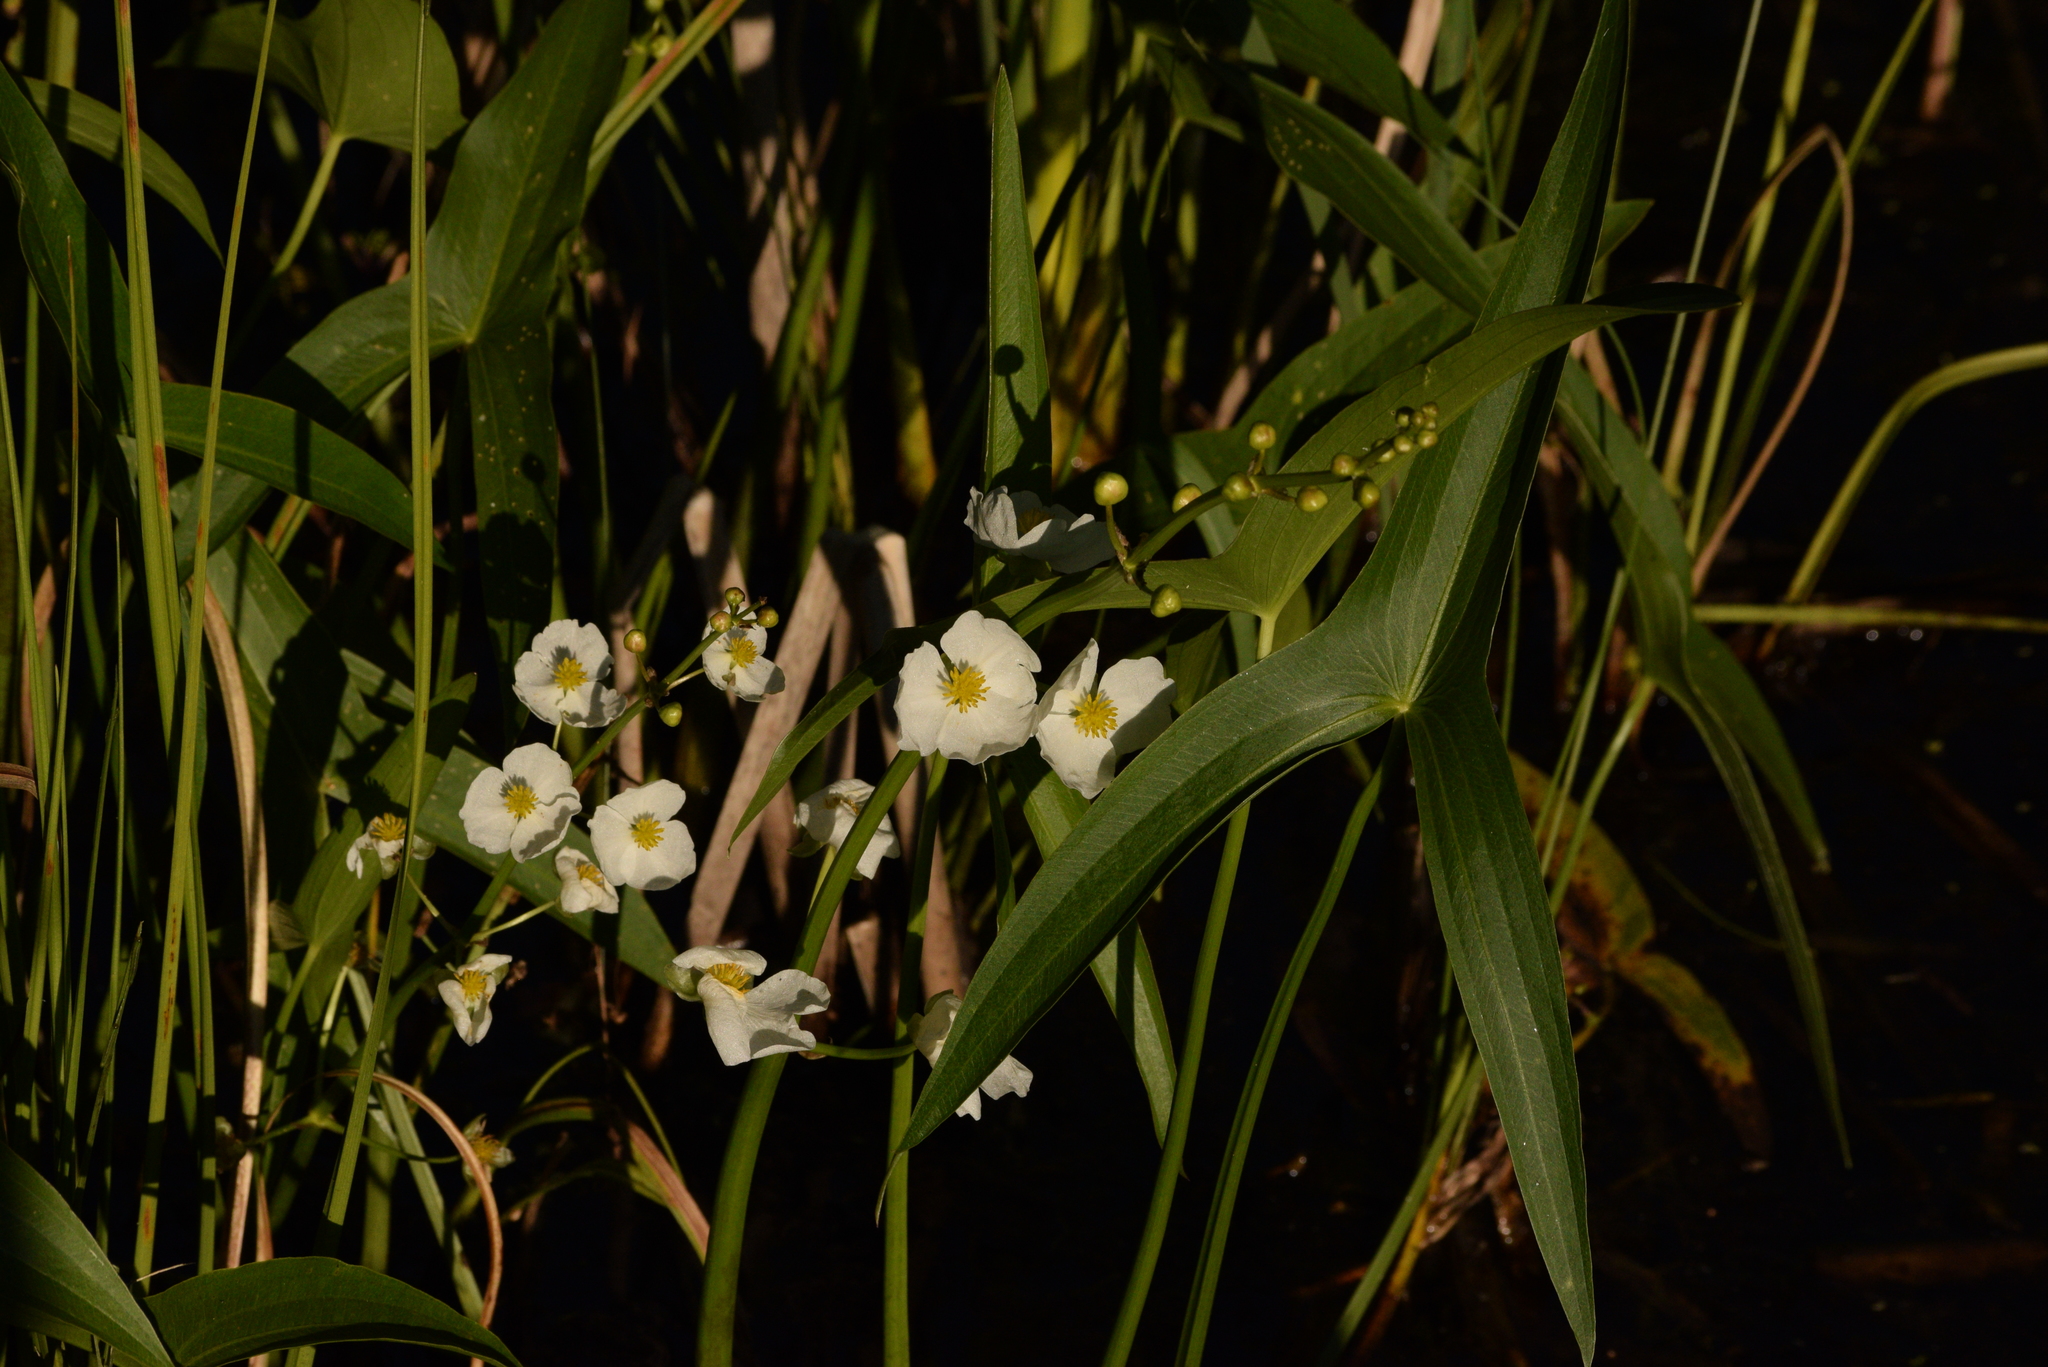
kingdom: Plantae
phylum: Tracheophyta
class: Liliopsida
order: Alismatales
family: Alismataceae
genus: Sagittaria
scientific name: Sagittaria latifolia
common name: Duck-potato
